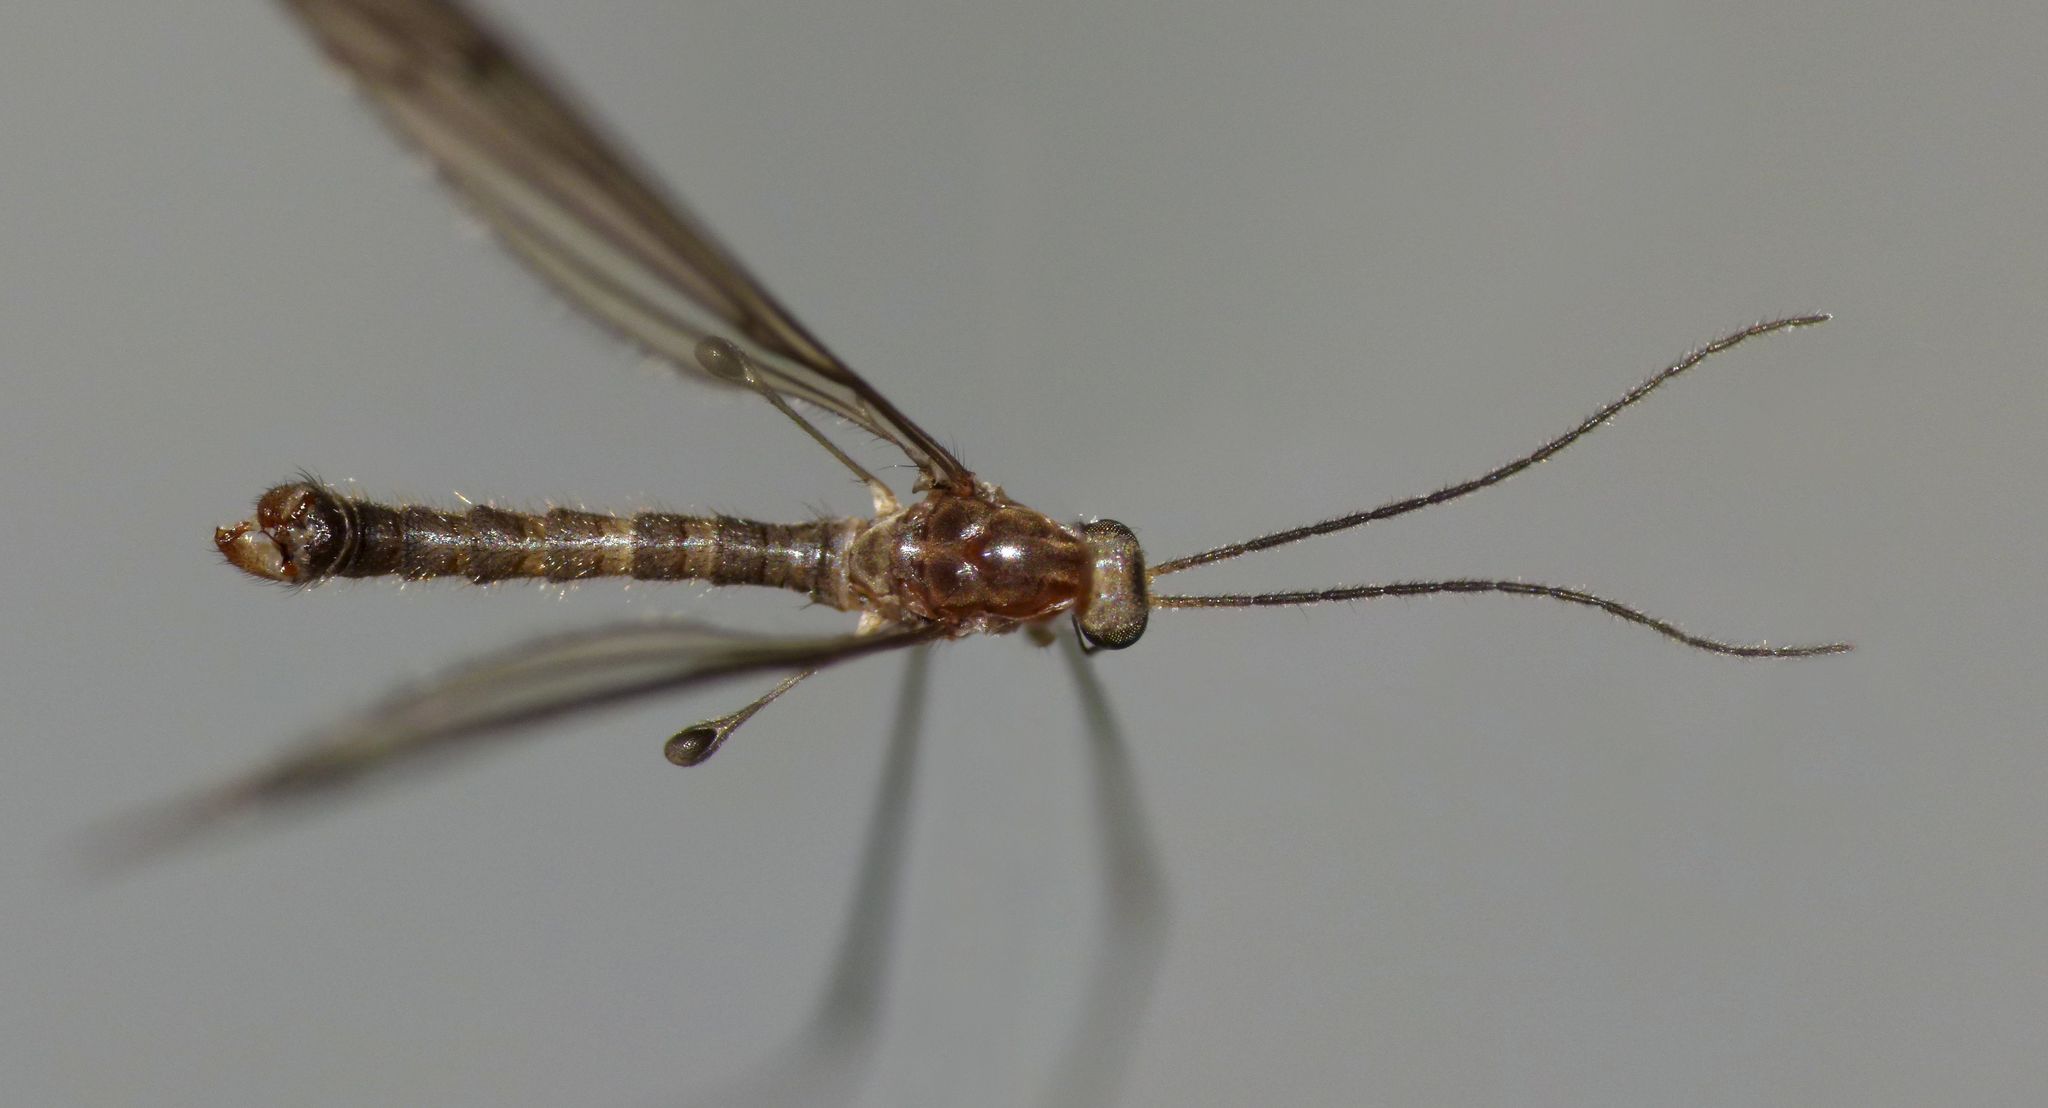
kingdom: Animalia
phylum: Arthropoda
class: Insecta
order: Diptera
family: Limoniidae
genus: Acantholimnophila
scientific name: Acantholimnophila maorica
